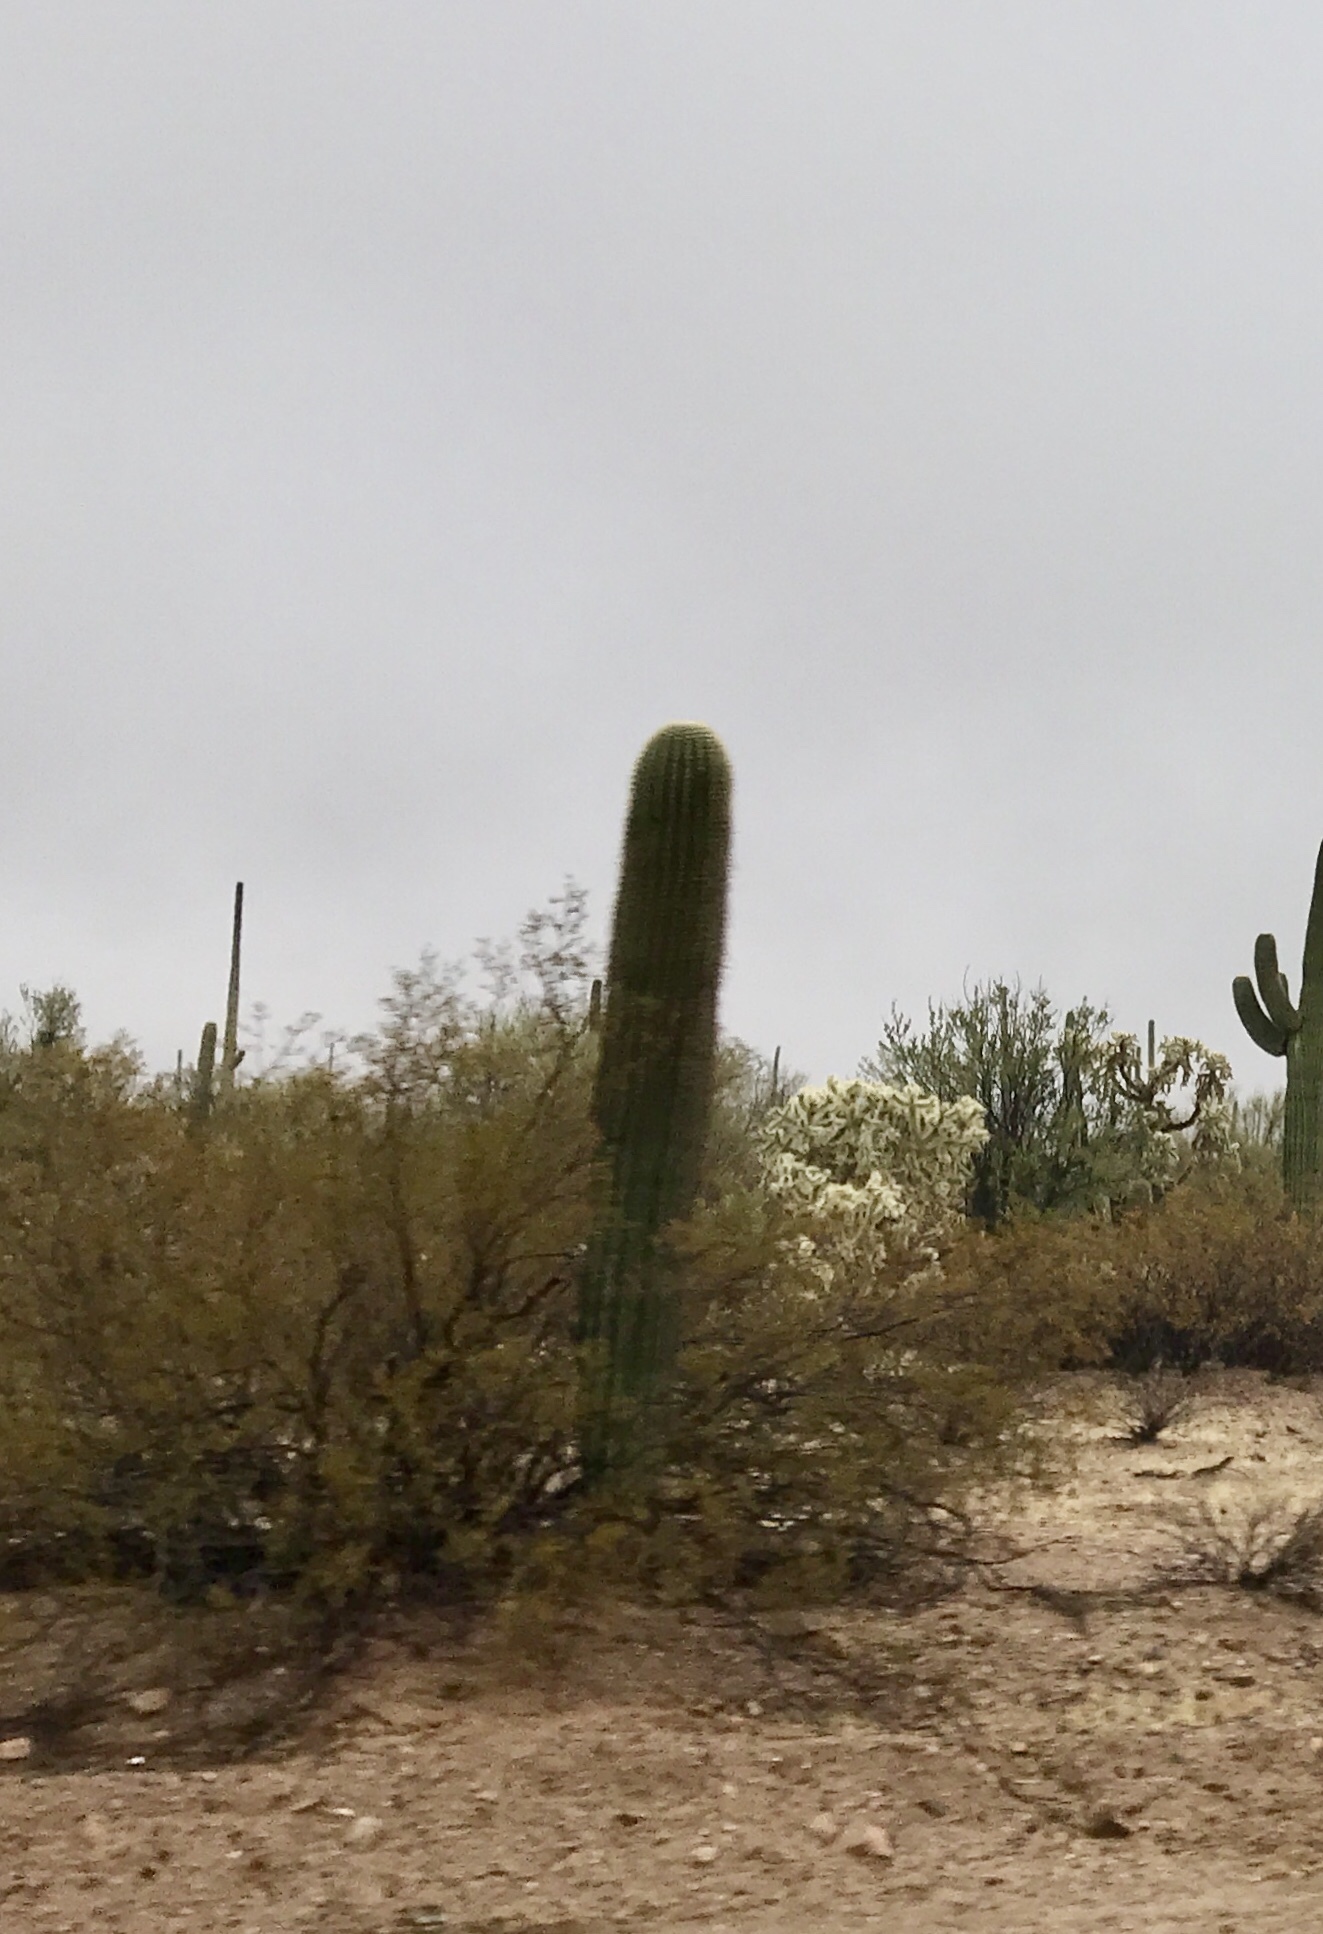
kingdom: Plantae
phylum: Tracheophyta
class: Magnoliopsida
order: Caryophyllales
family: Cactaceae
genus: Carnegiea
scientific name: Carnegiea gigantea
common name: Saguaro
